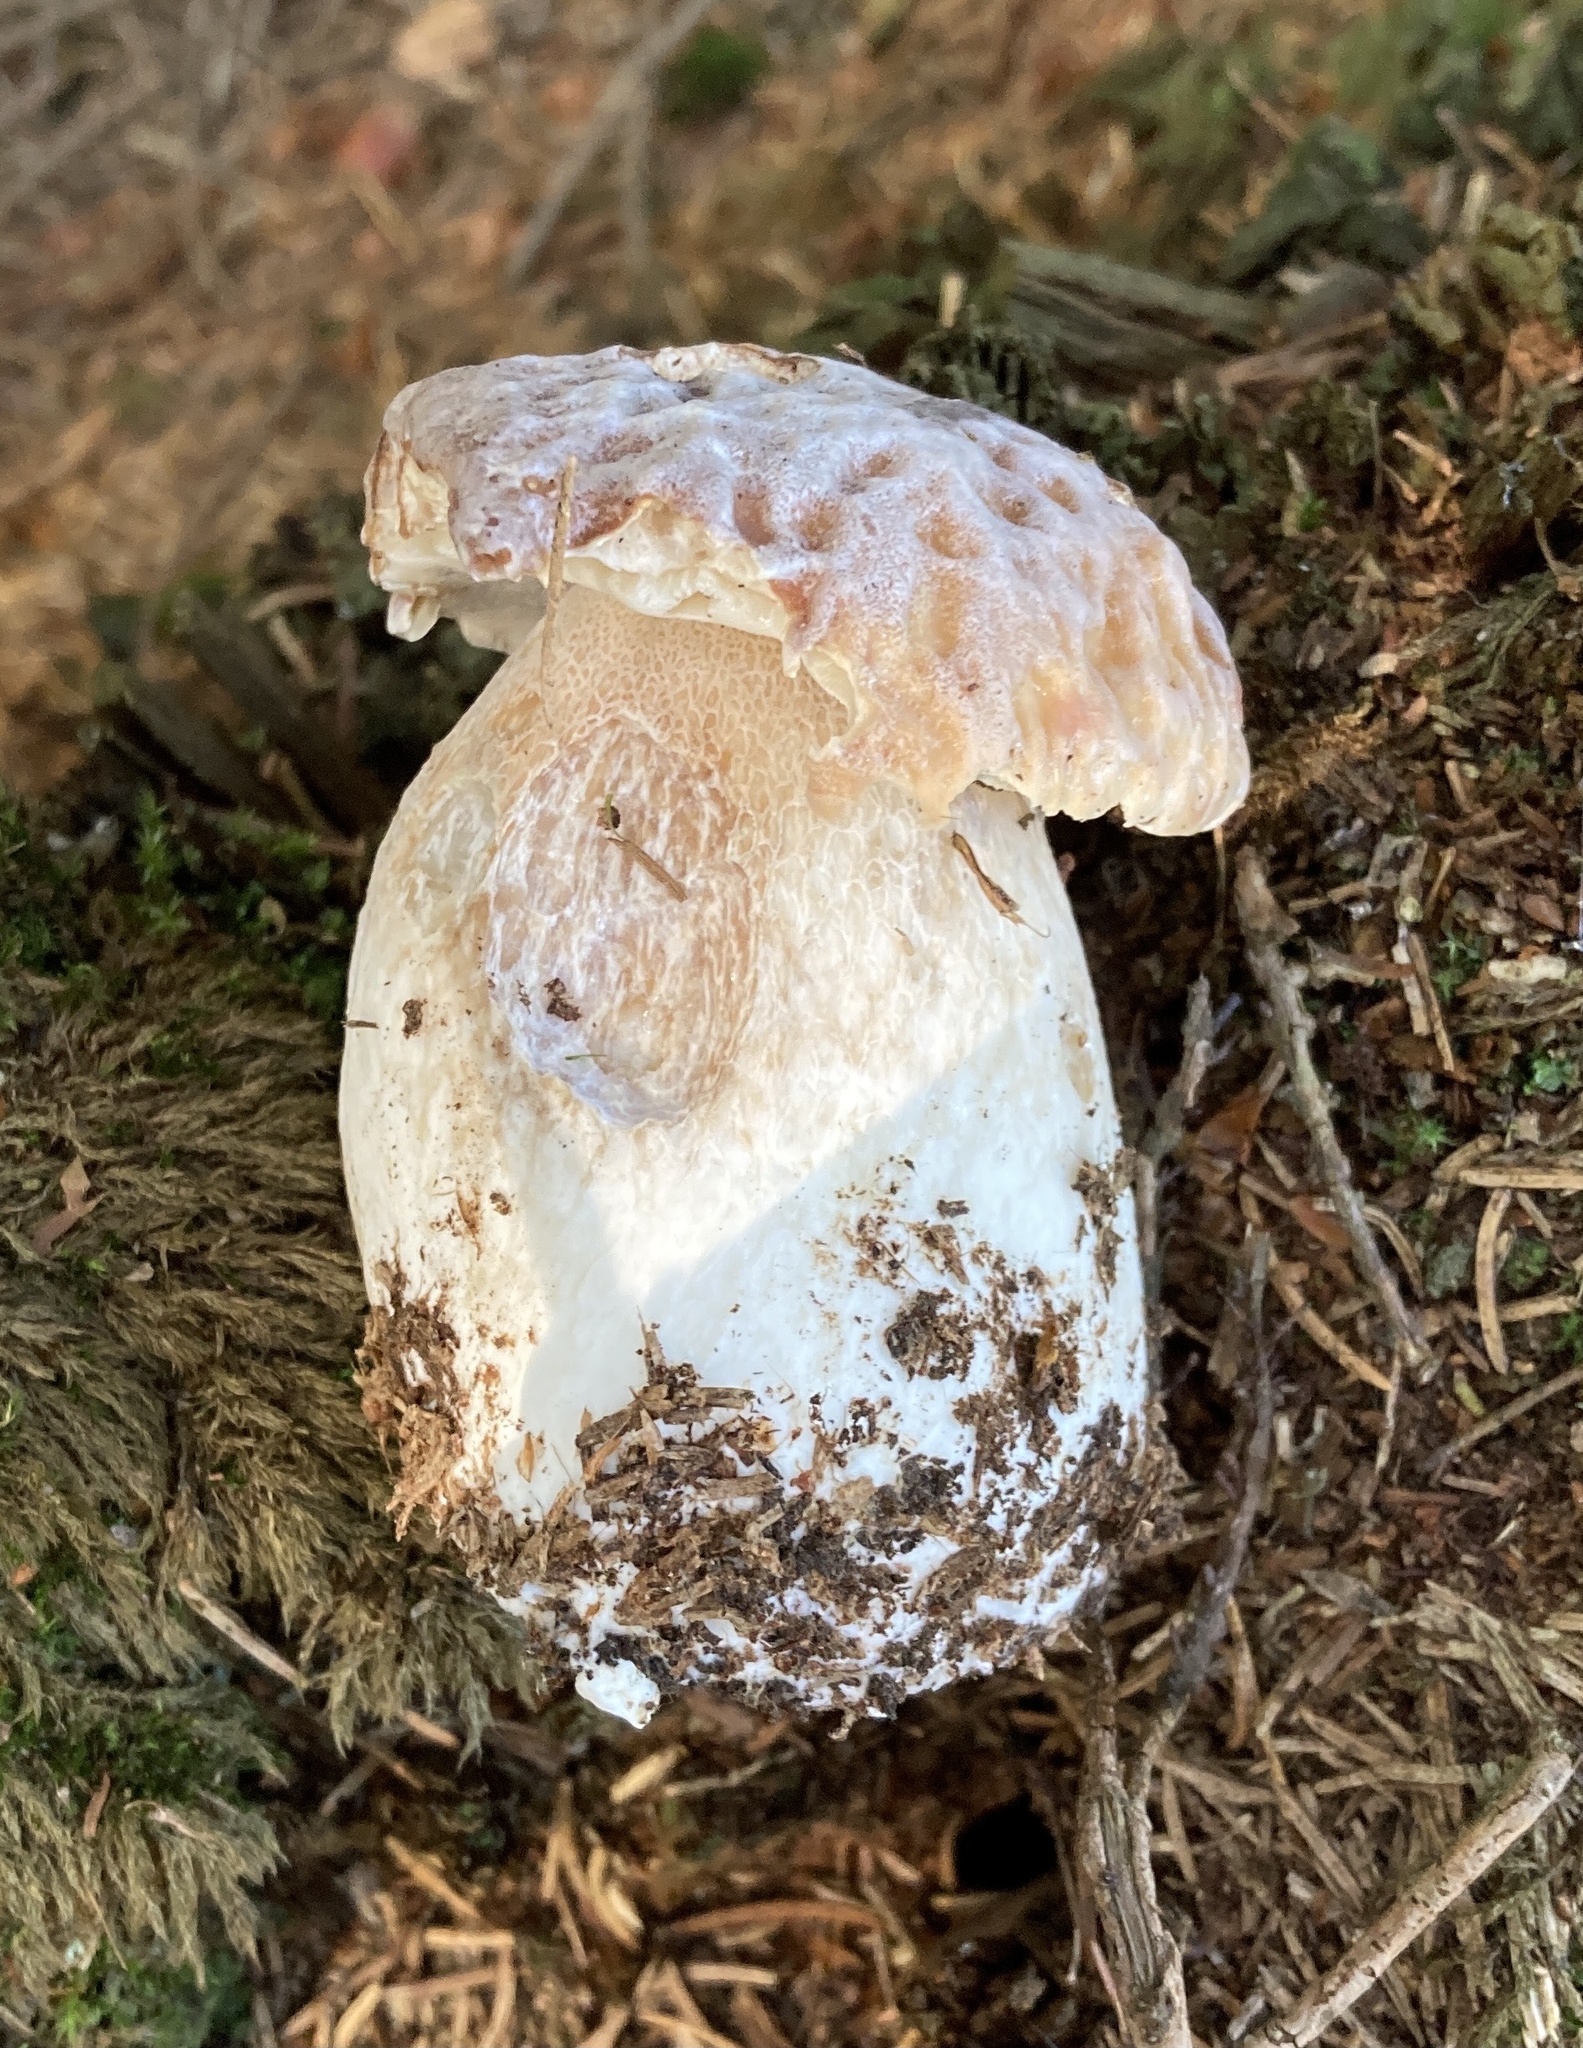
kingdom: Fungi
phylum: Basidiomycota
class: Agaricomycetes
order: Boletales
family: Boletaceae
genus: Boletus
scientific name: Boletus edulis
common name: Cep
